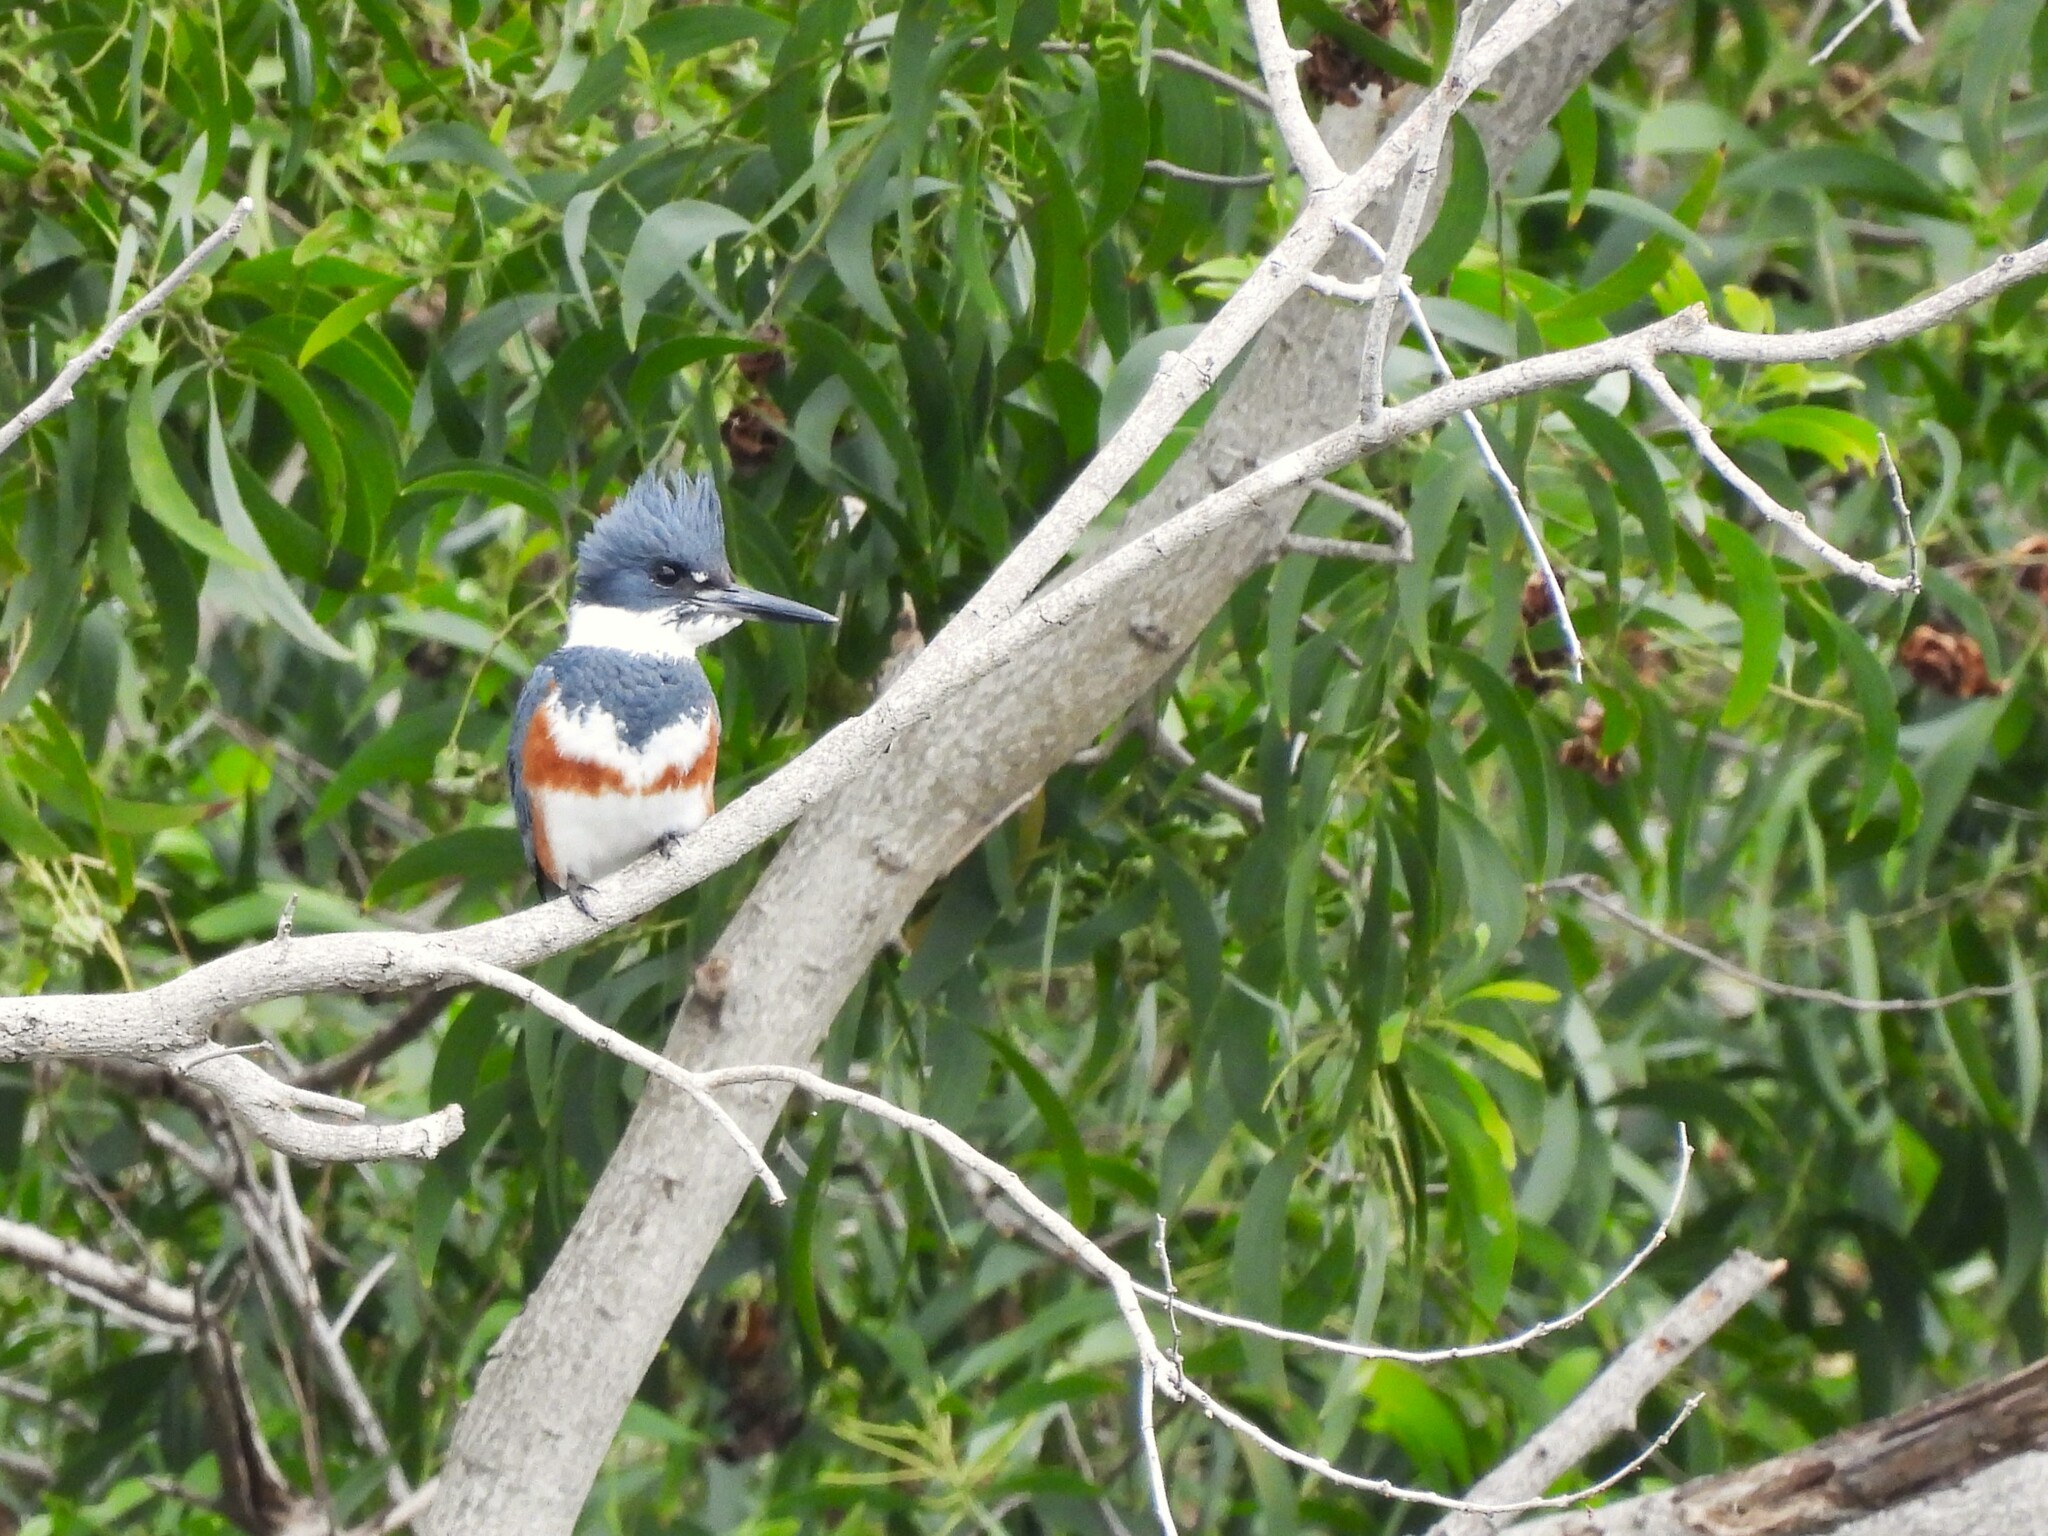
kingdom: Animalia
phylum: Chordata
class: Aves
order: Coraciiformes
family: Alcedinidae
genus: Megaceryle
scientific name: Megaceryle alcyon
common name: Belted kingfisher
